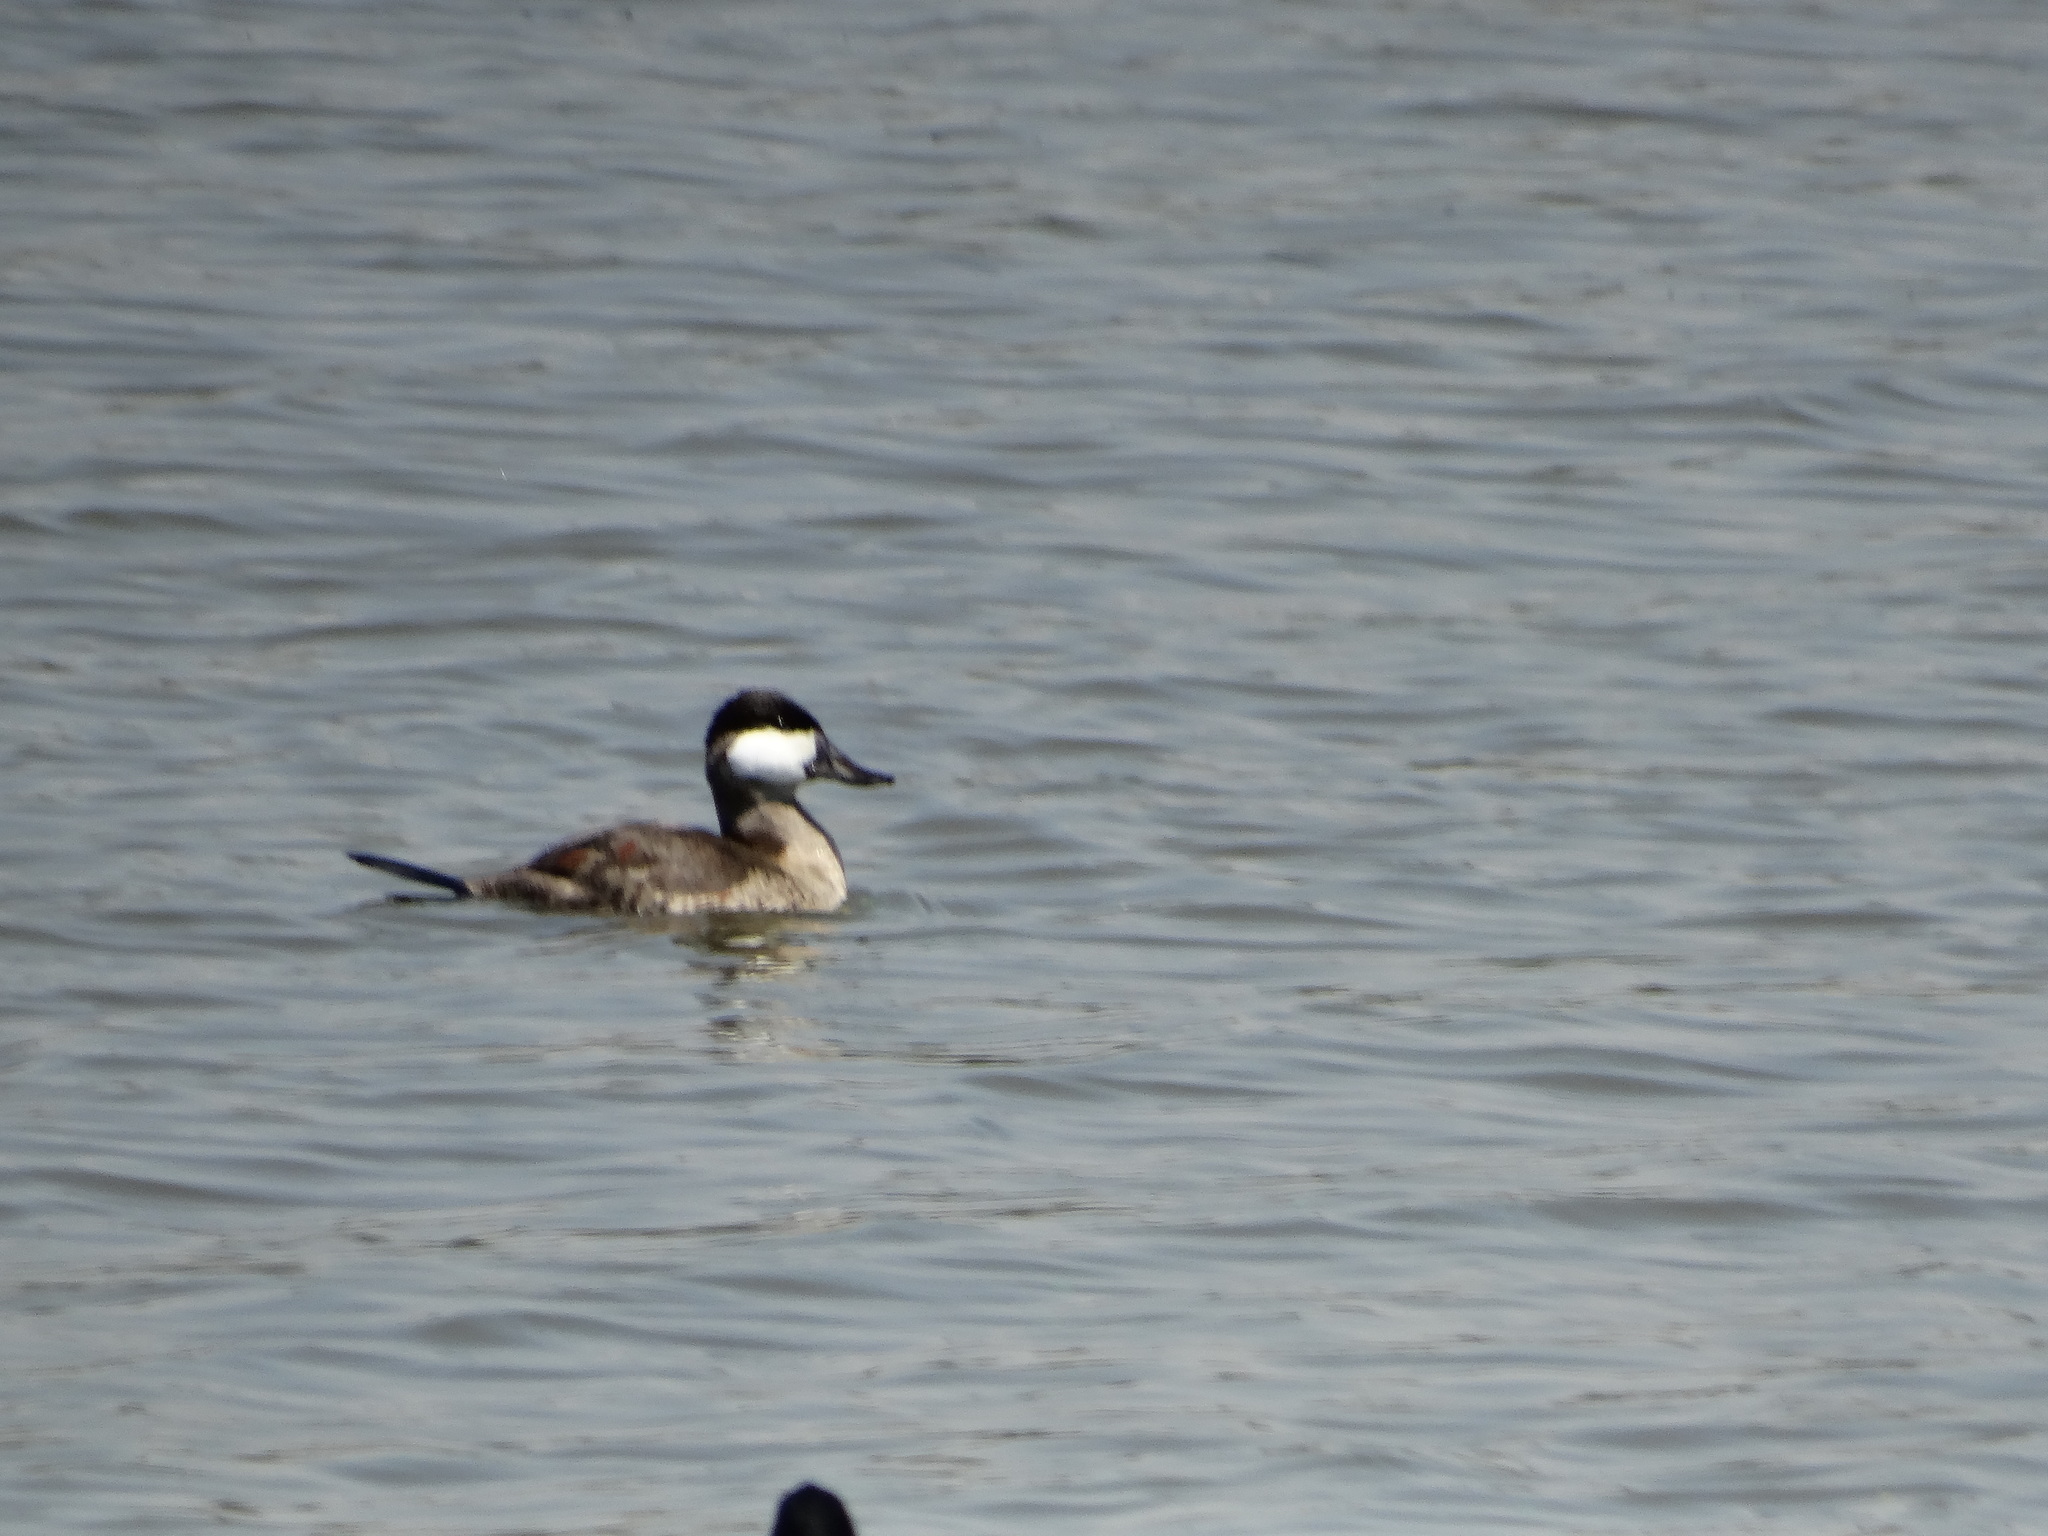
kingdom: Animalia
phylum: Chordata
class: Aves
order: Anseriformes
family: Anatidae
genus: Oxyura
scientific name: Oxyura jamaicensis
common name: Ruddy duck
